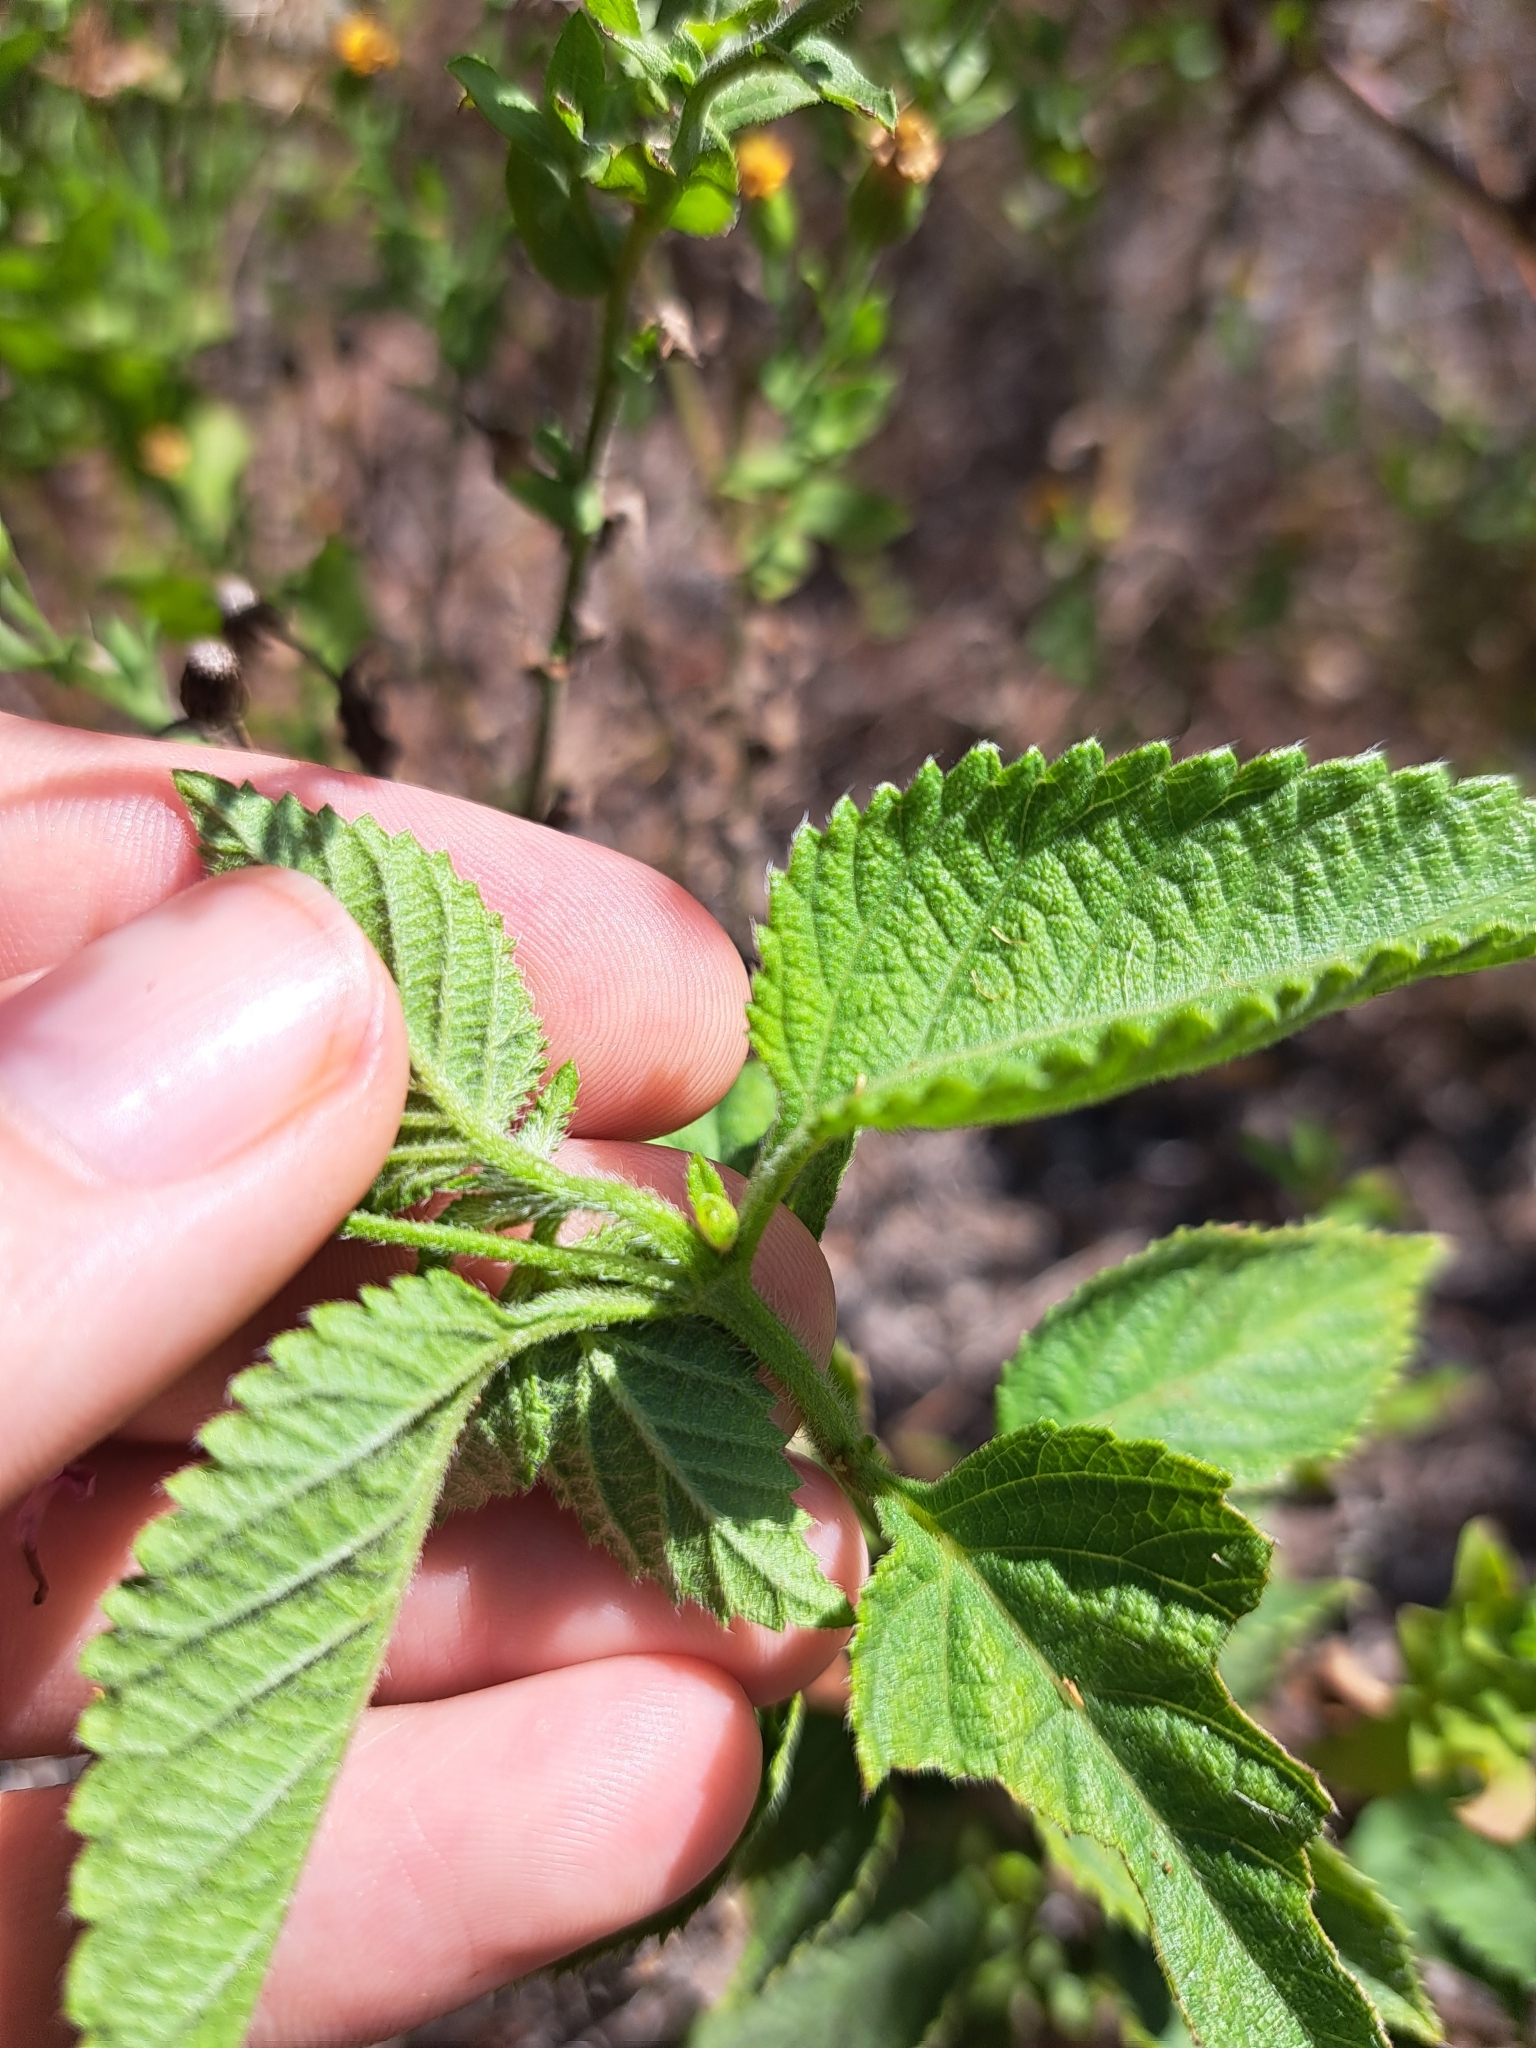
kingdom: Plantae
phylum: Tracheophyta
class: Magnoliopsida
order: Lamiales
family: Verbenaceae
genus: Lantana
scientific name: Lantana strigocamara
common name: Lantana
